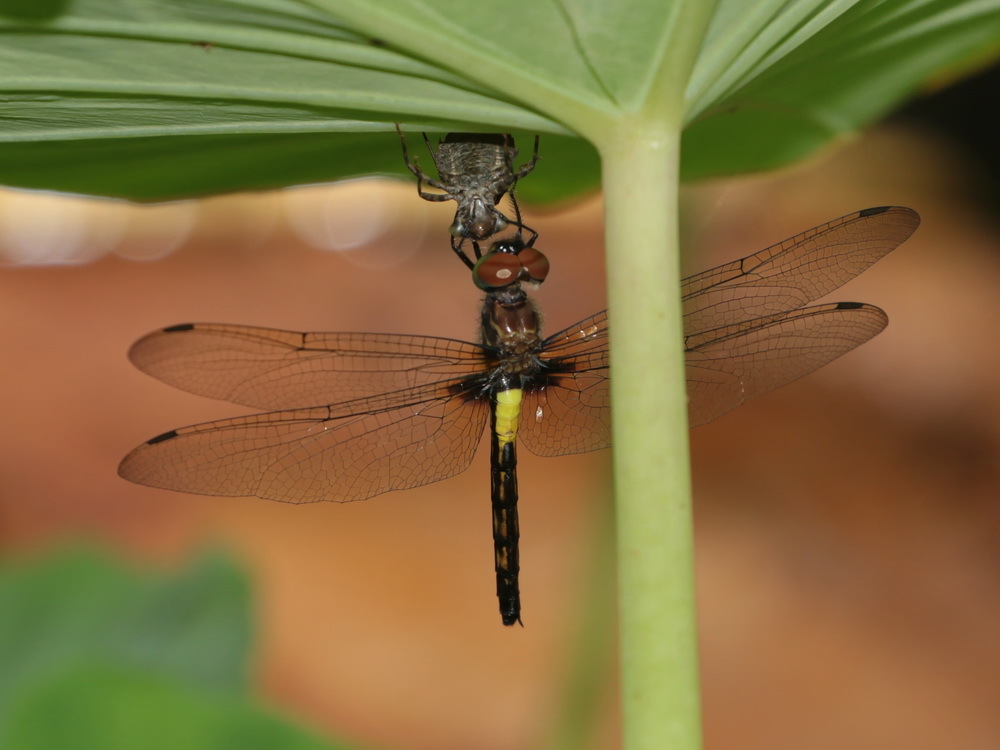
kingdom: Animalia
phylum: Arthropoda
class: Insecta
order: Odonata
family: Libellulidae
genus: Pseudothemis
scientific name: Pseudothemis jorina
